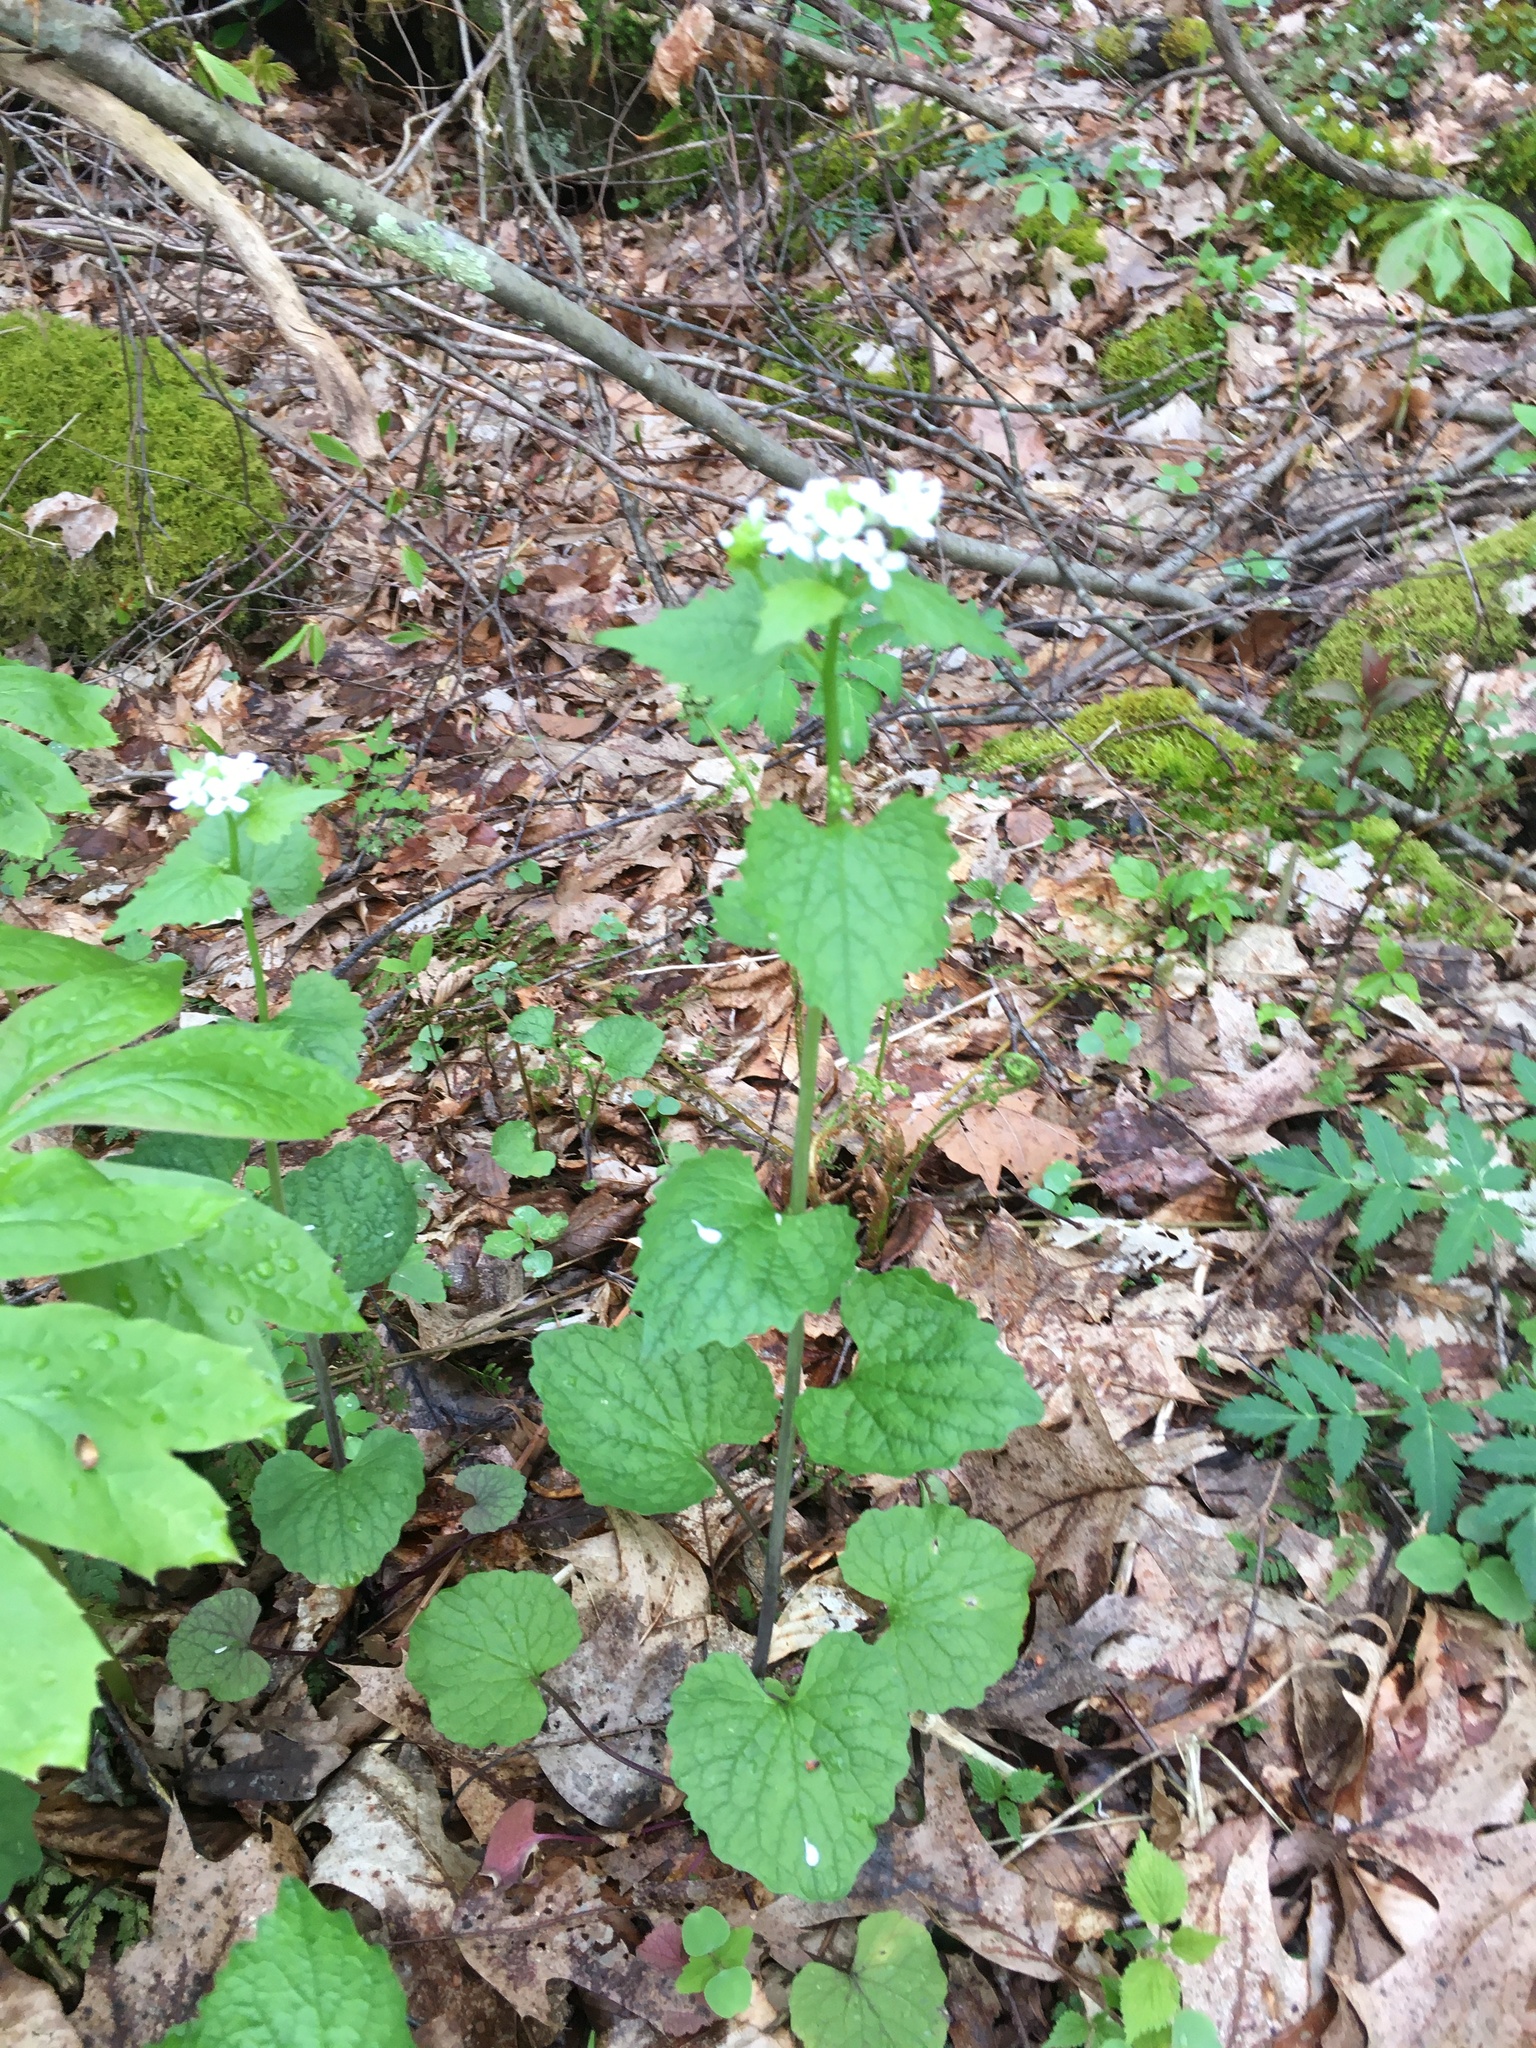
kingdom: Plantae
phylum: Tracheophyta
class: Magnoliopsida
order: Brassicales
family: Brassicaceae
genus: Alliaria
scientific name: Alliaria petiolata
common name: Garlic mustard
